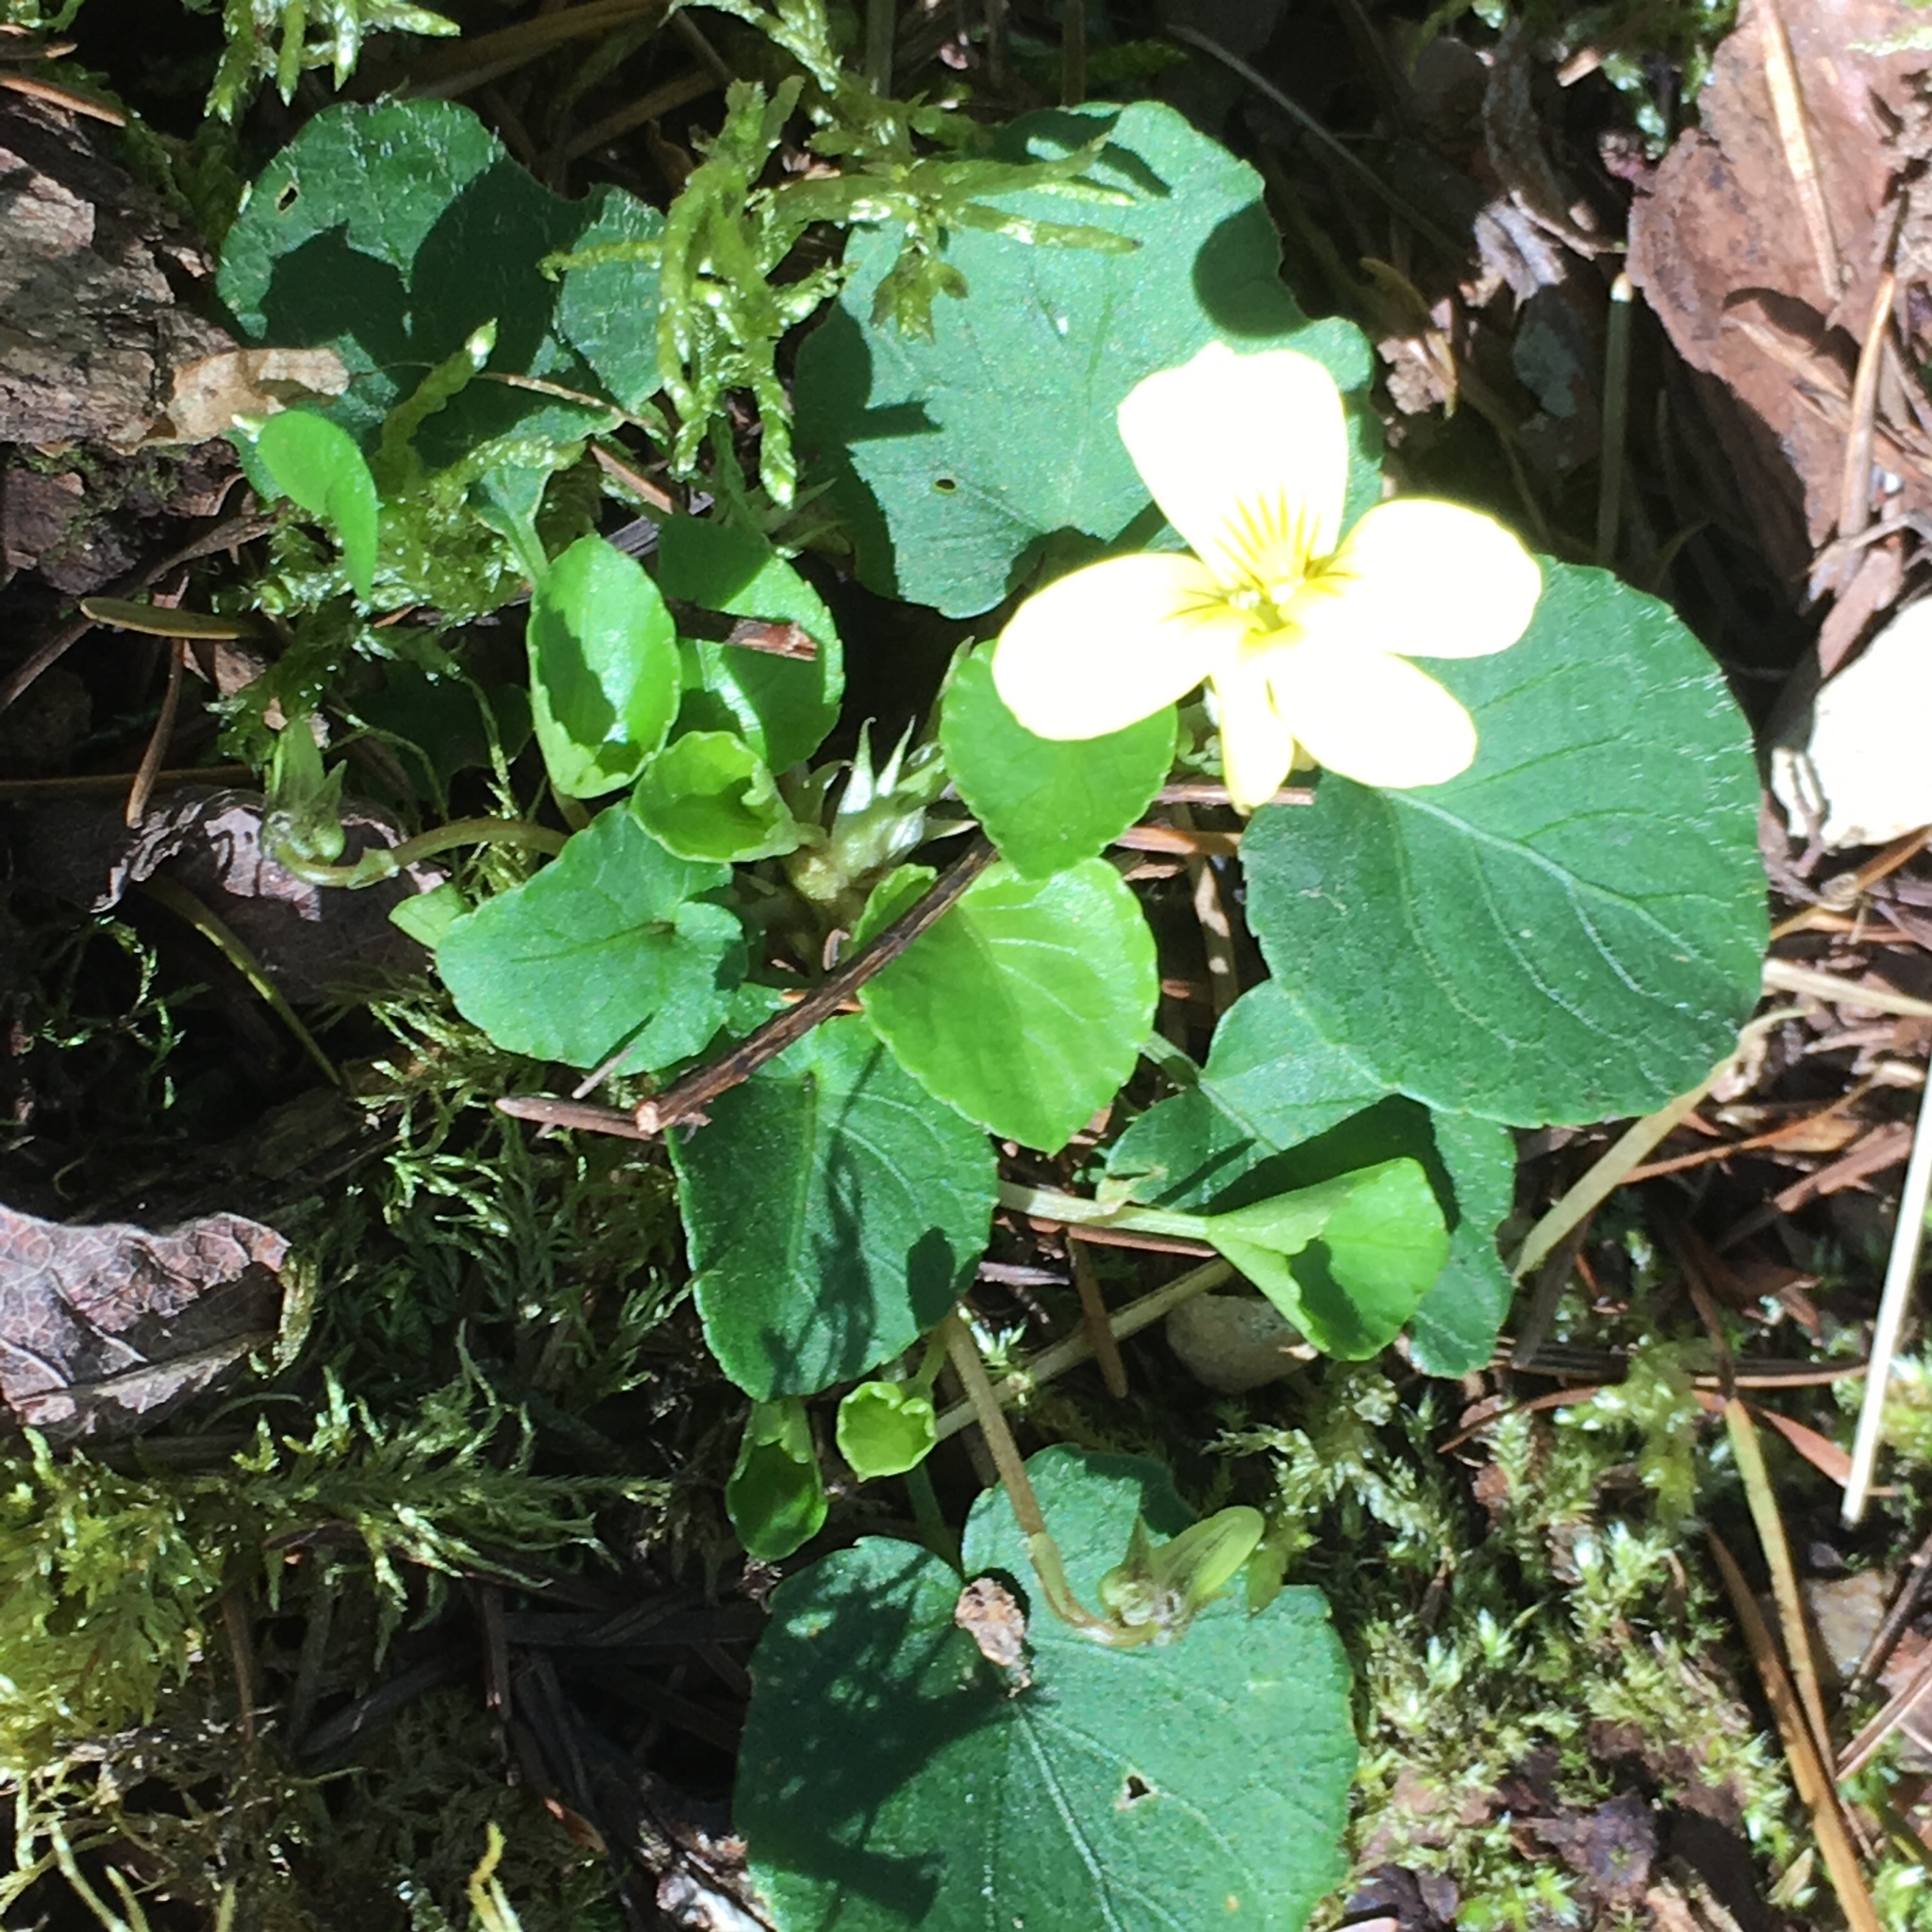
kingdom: Plantae
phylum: Tracheophyta
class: Magnoliopsida
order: Malpighiales
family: Violaceae
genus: Viola
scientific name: Viola sempervirens
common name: Evergreen violet
